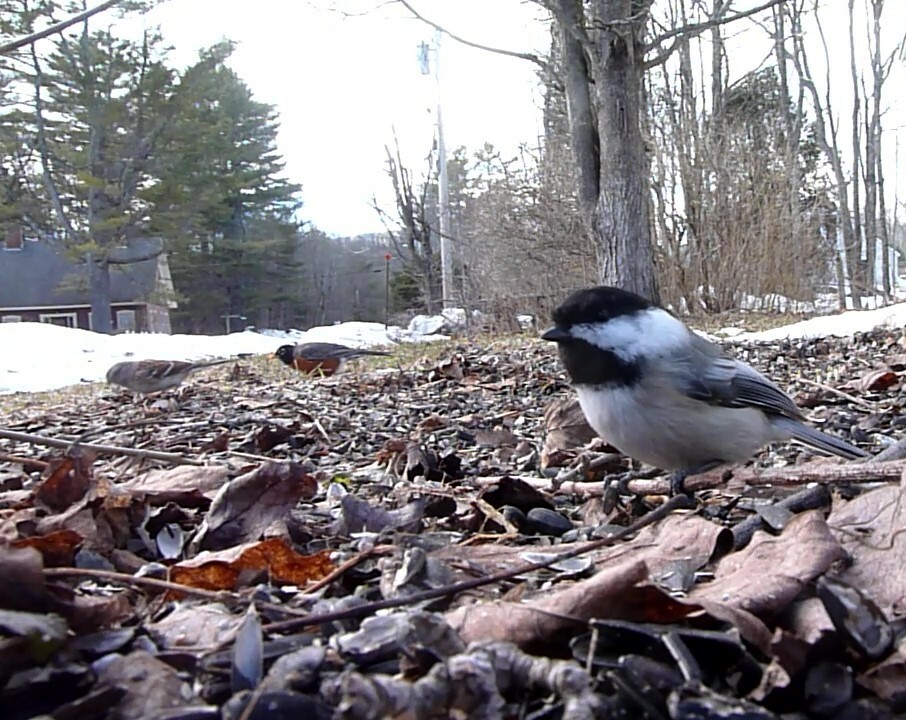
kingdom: Animalia
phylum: Chordata
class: Aves
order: Passeriformes
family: Paridae
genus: Poecile
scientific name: Poecile atricapillus
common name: Black-capped chickadee
